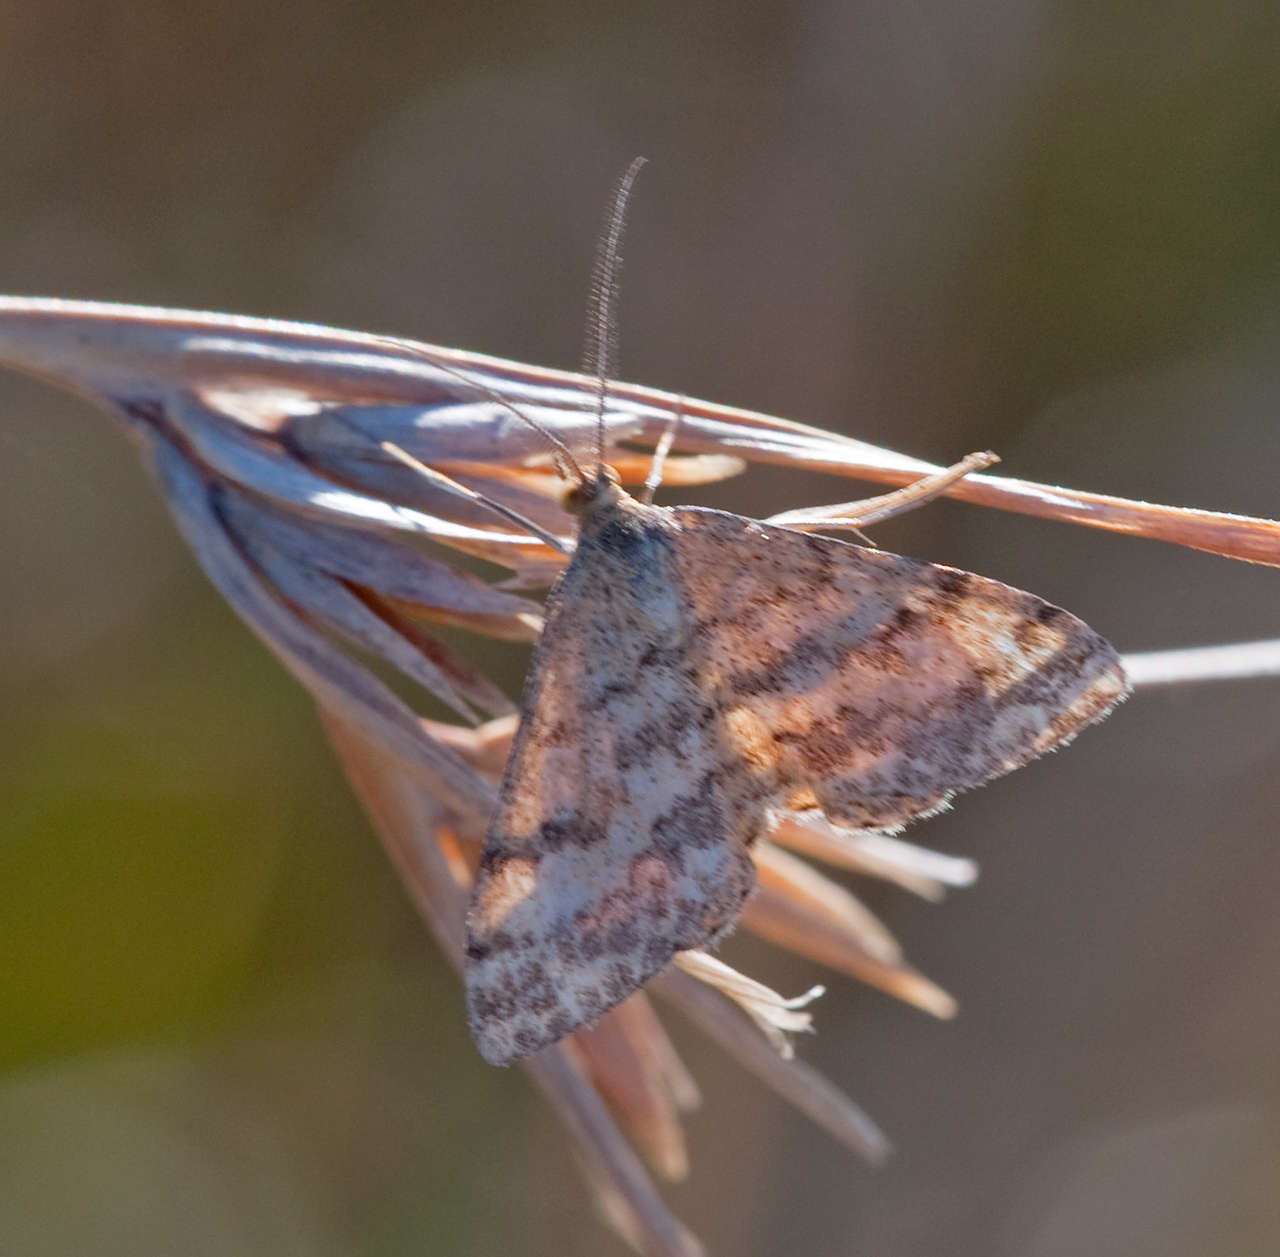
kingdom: Animalia
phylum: Arthropoda
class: Insecta
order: Lepidoptera
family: Geometridae
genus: Scopula
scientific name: Scopula rubraria
